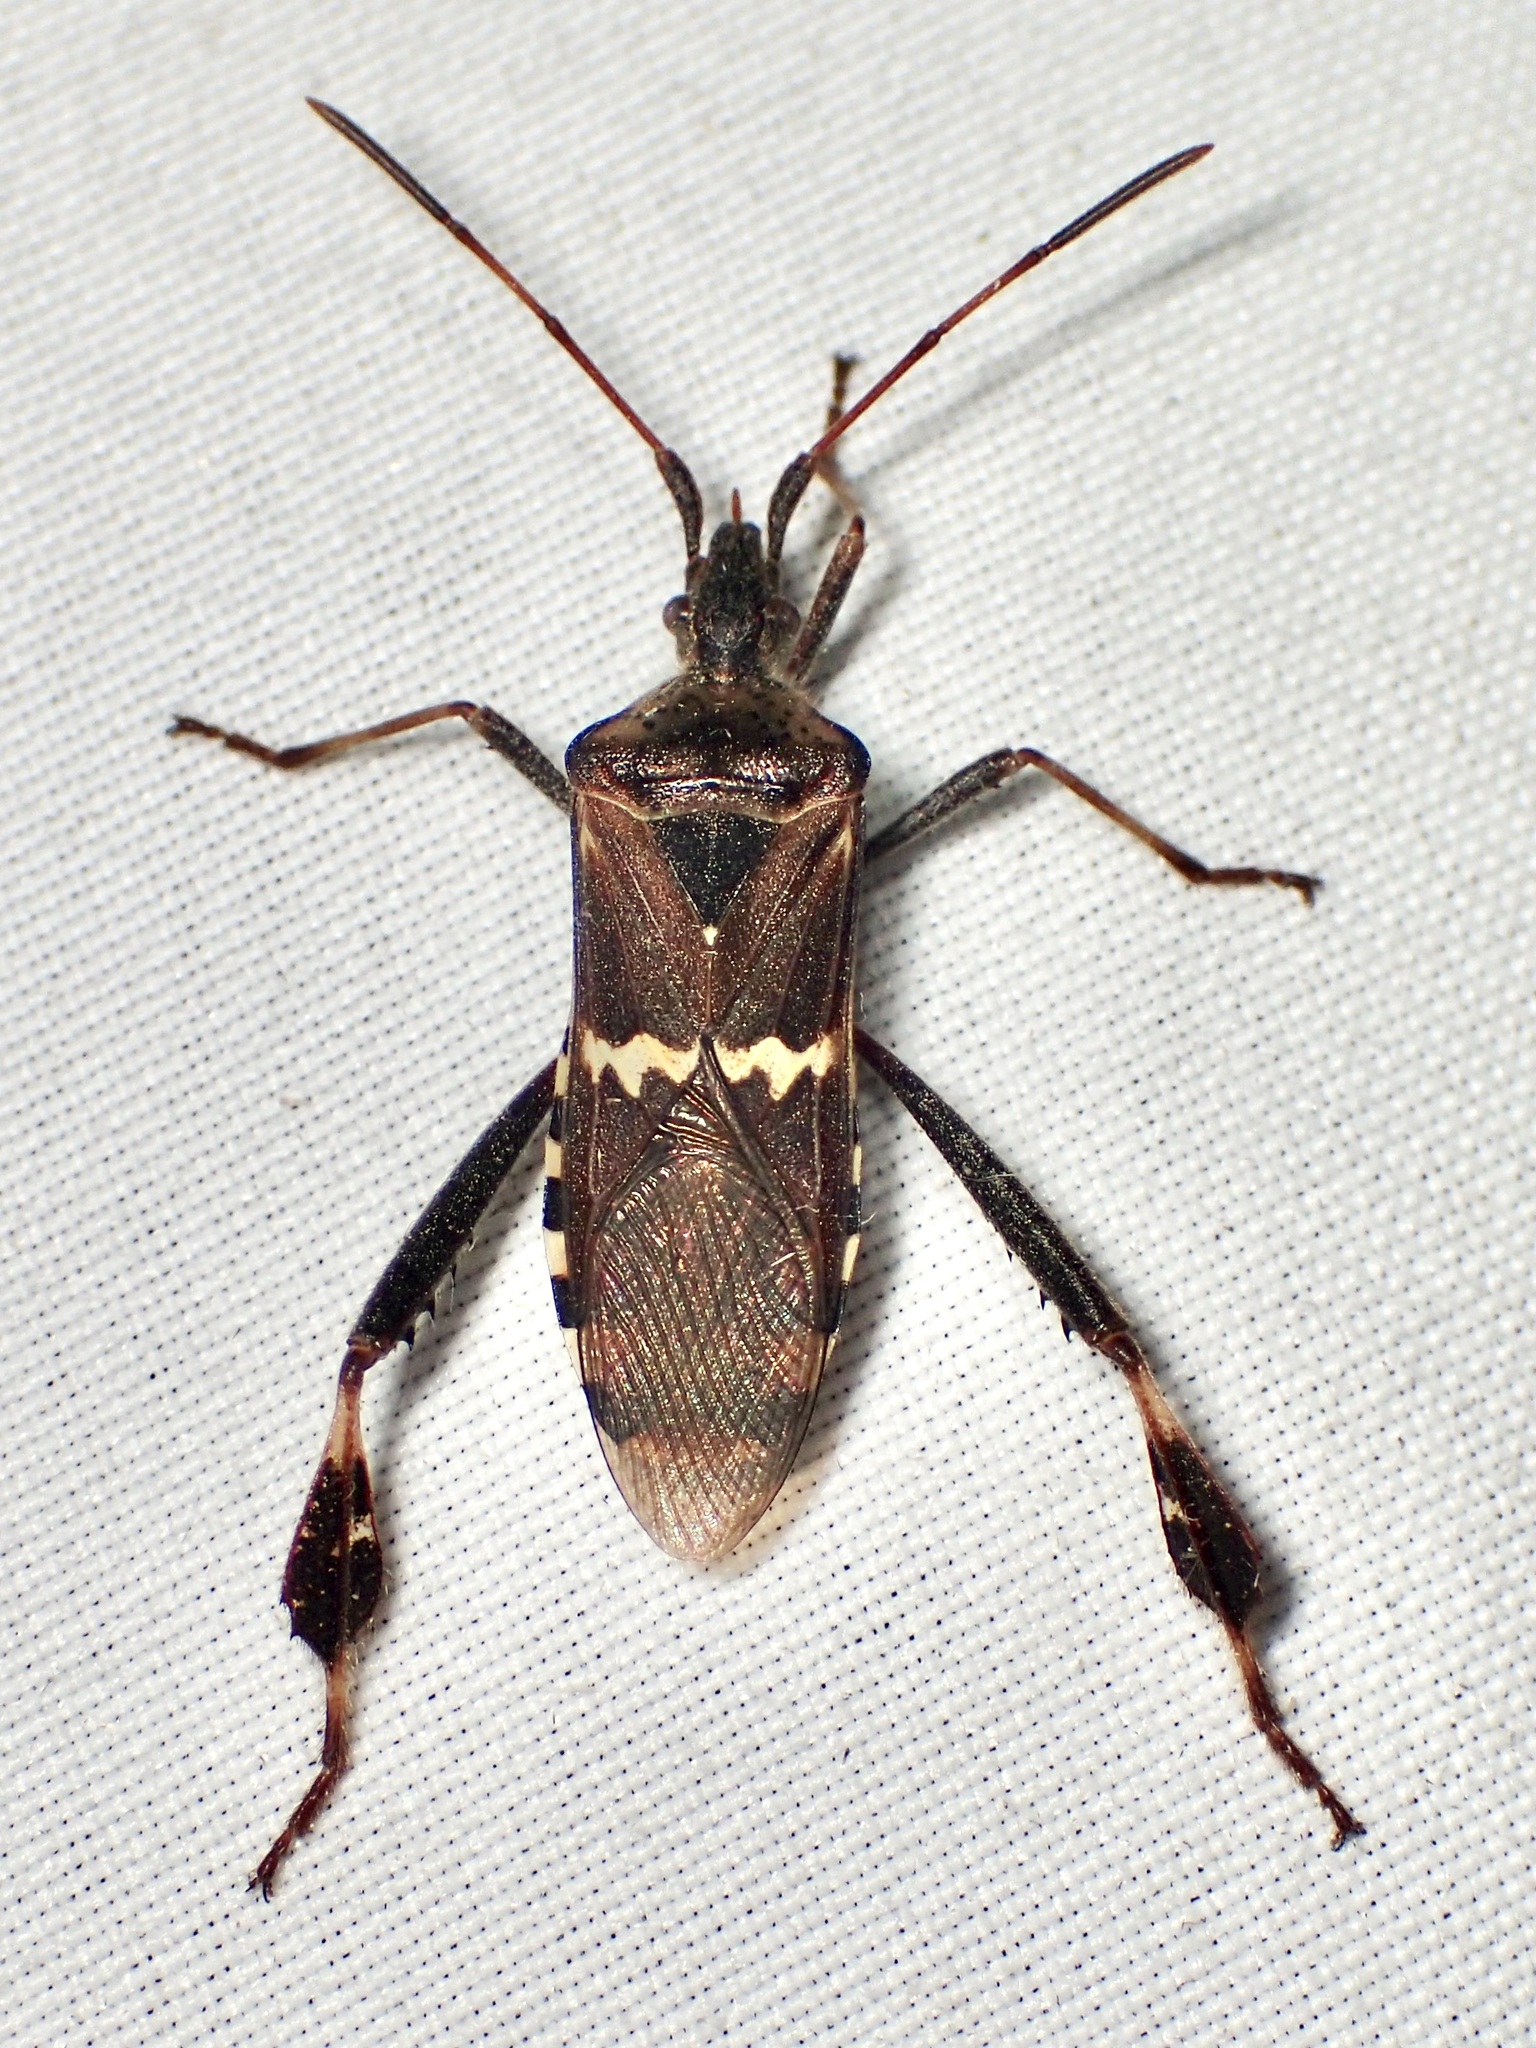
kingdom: Animalia
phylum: Arthropoda
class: Insecta
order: Hemiptera
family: Coreidae
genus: Leptoglossus
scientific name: Leptoglossus clypealis
